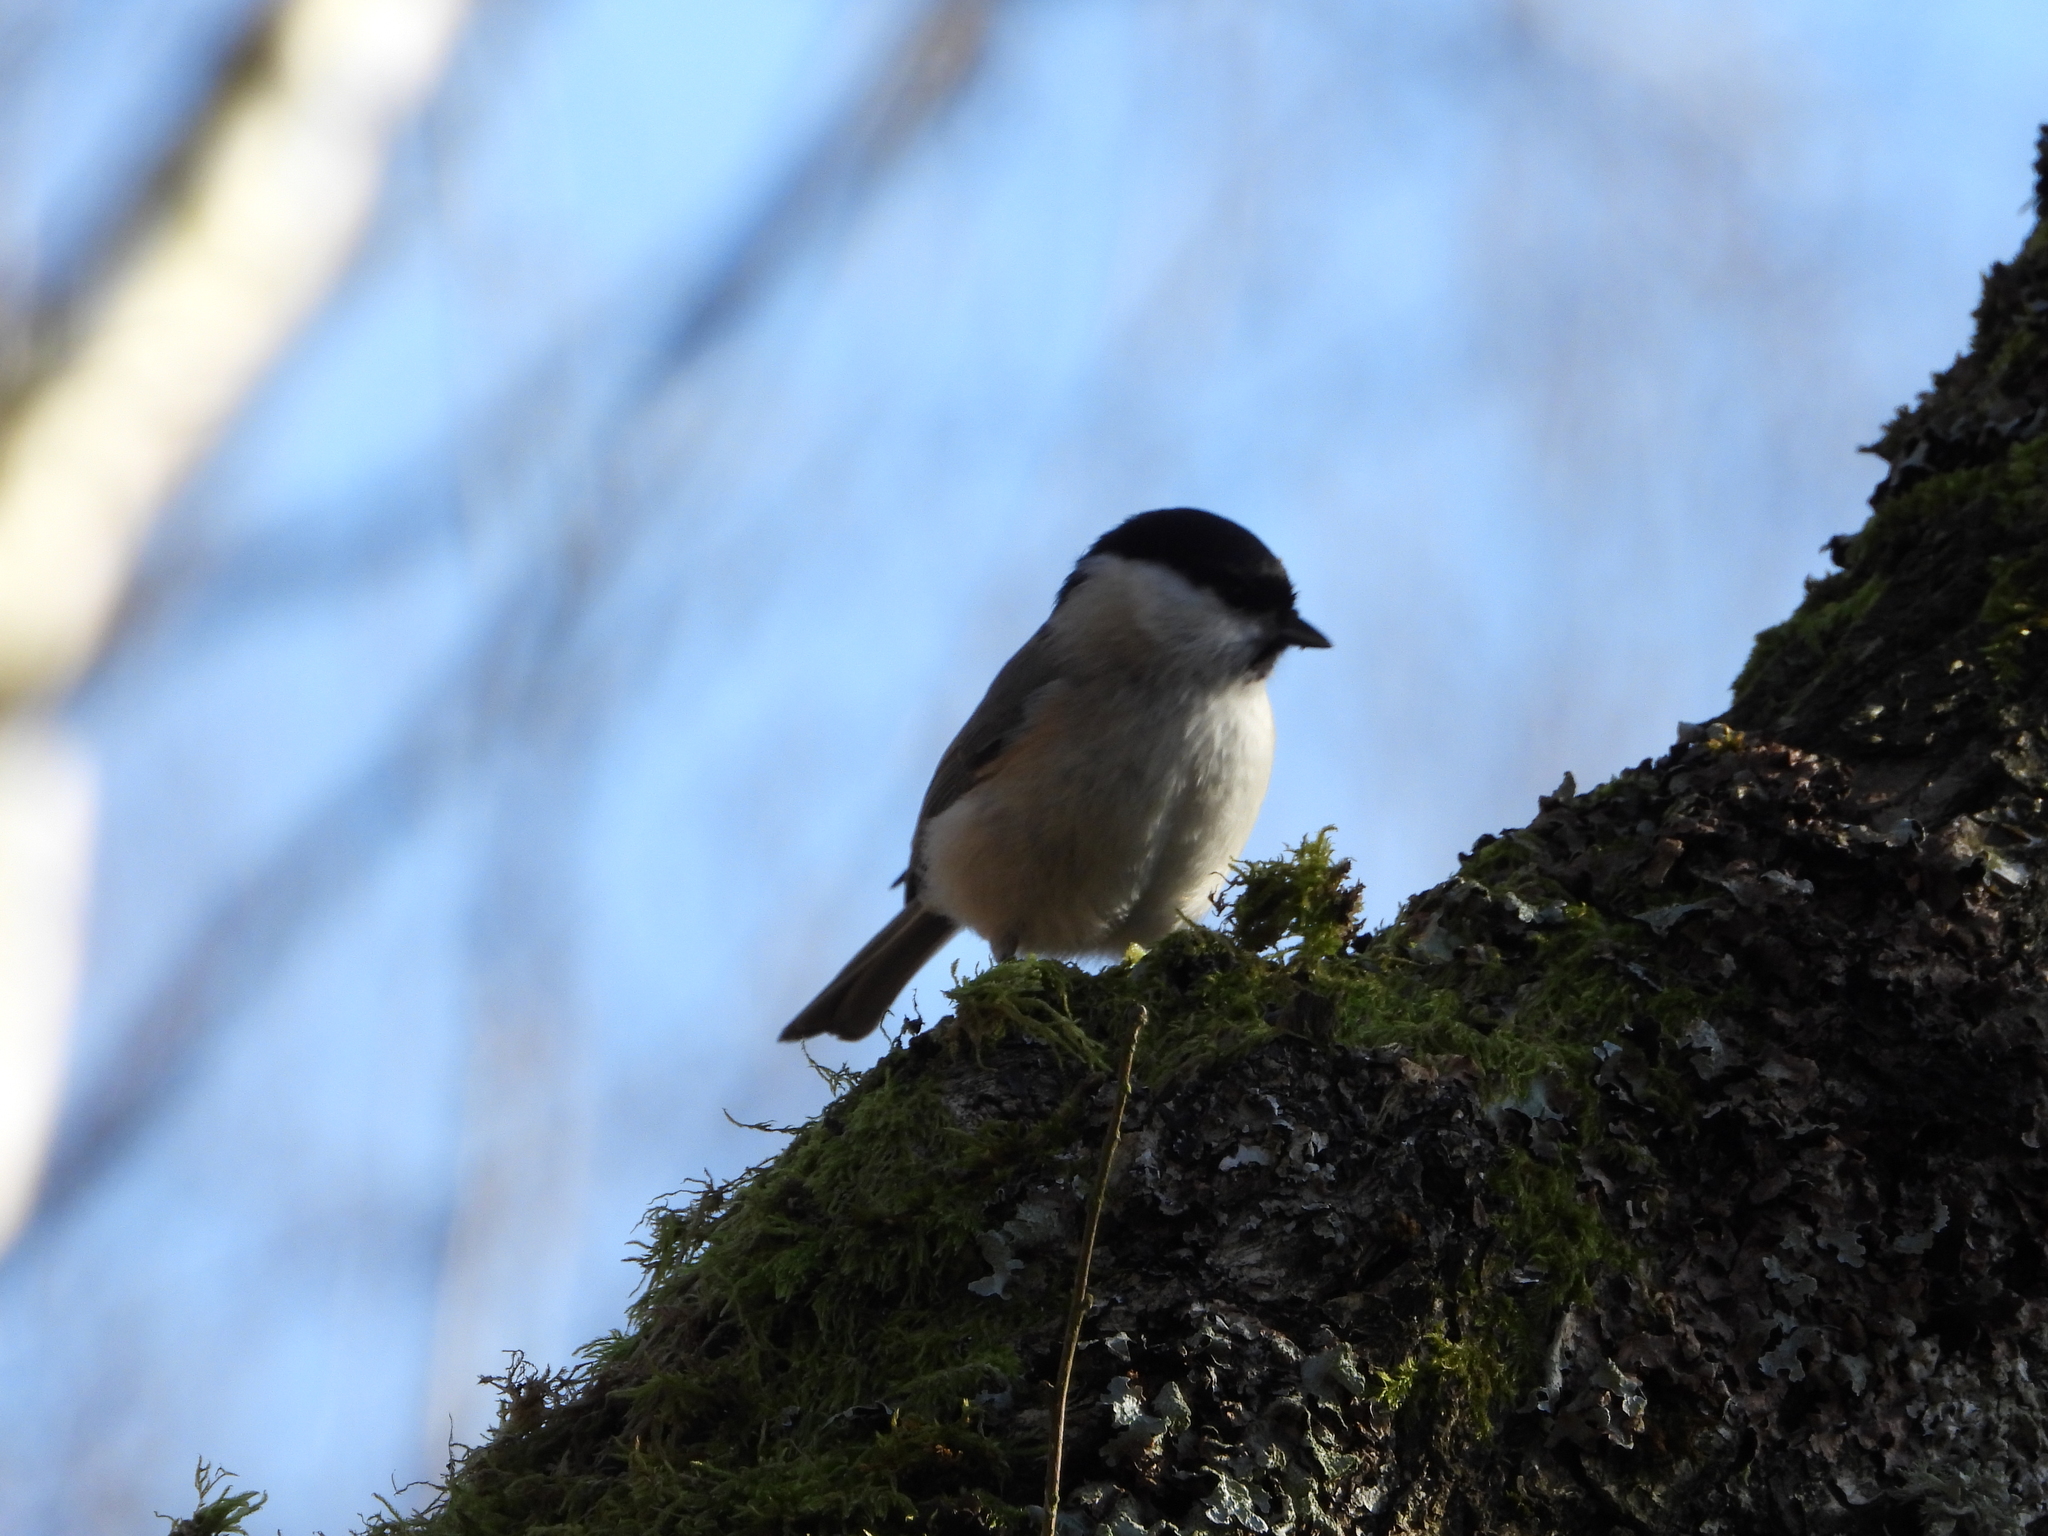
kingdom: Animalia
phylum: Chordata
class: Aves
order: Passeriformes
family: Paridae
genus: Poecile
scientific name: Poecile palustris
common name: Marsh tit
